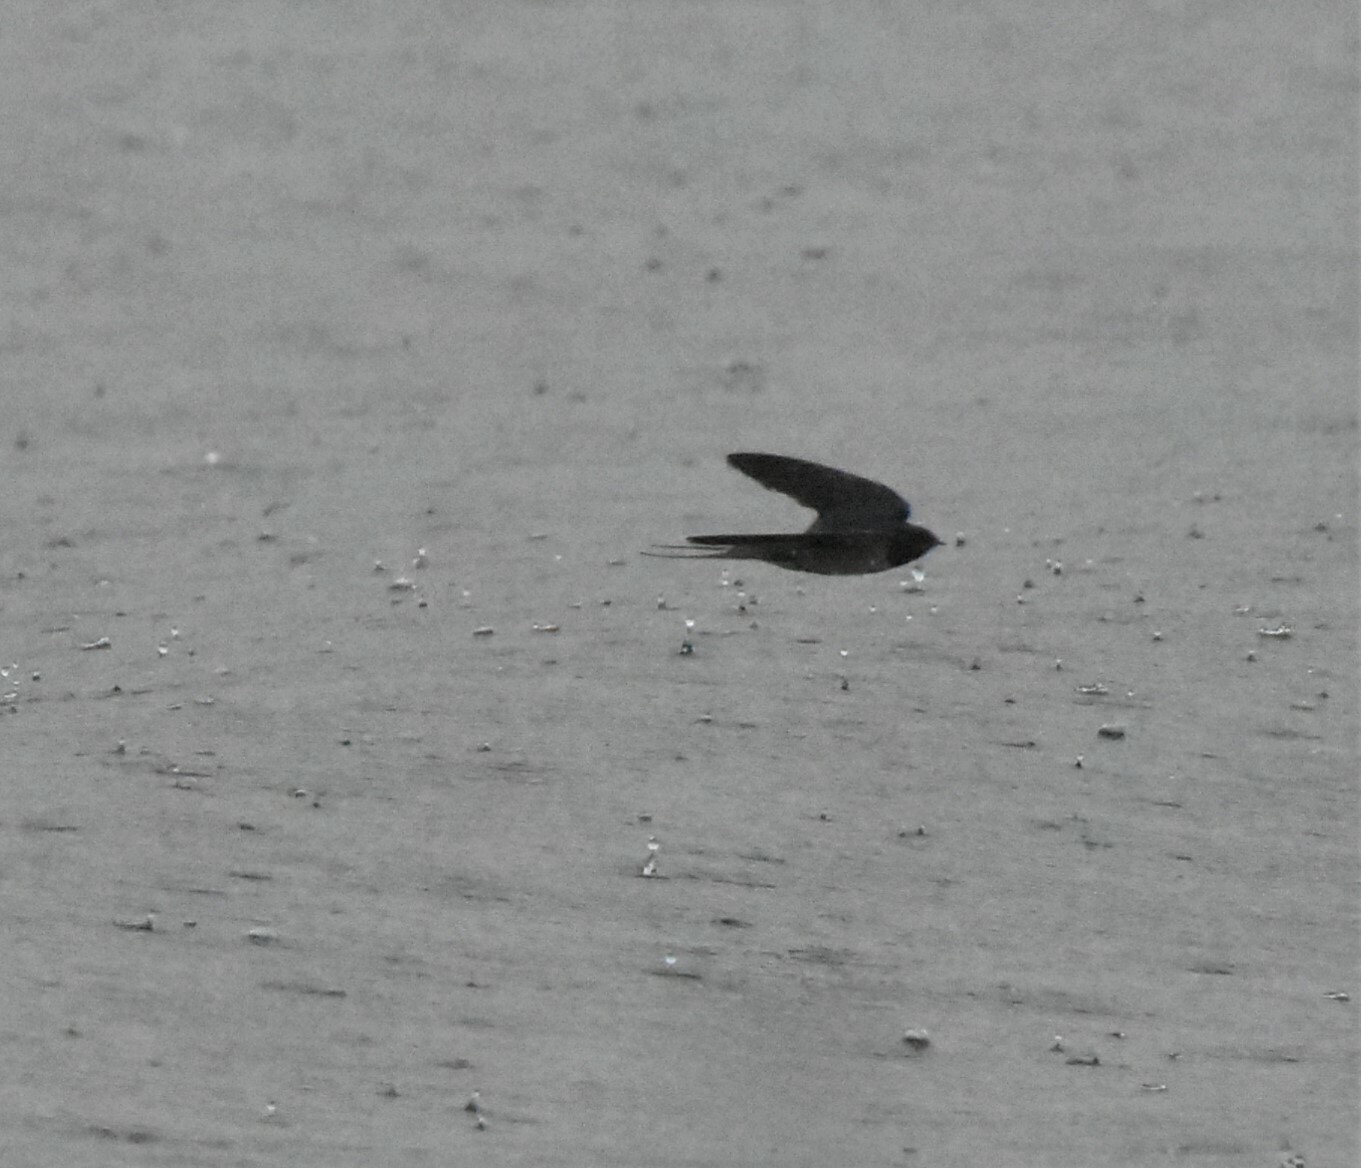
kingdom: Animalia
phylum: Chordata
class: Aves
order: Passeriformes
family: Hirundinidae
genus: Hirundo
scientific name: Hirundo rustica
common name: Barn swallow
